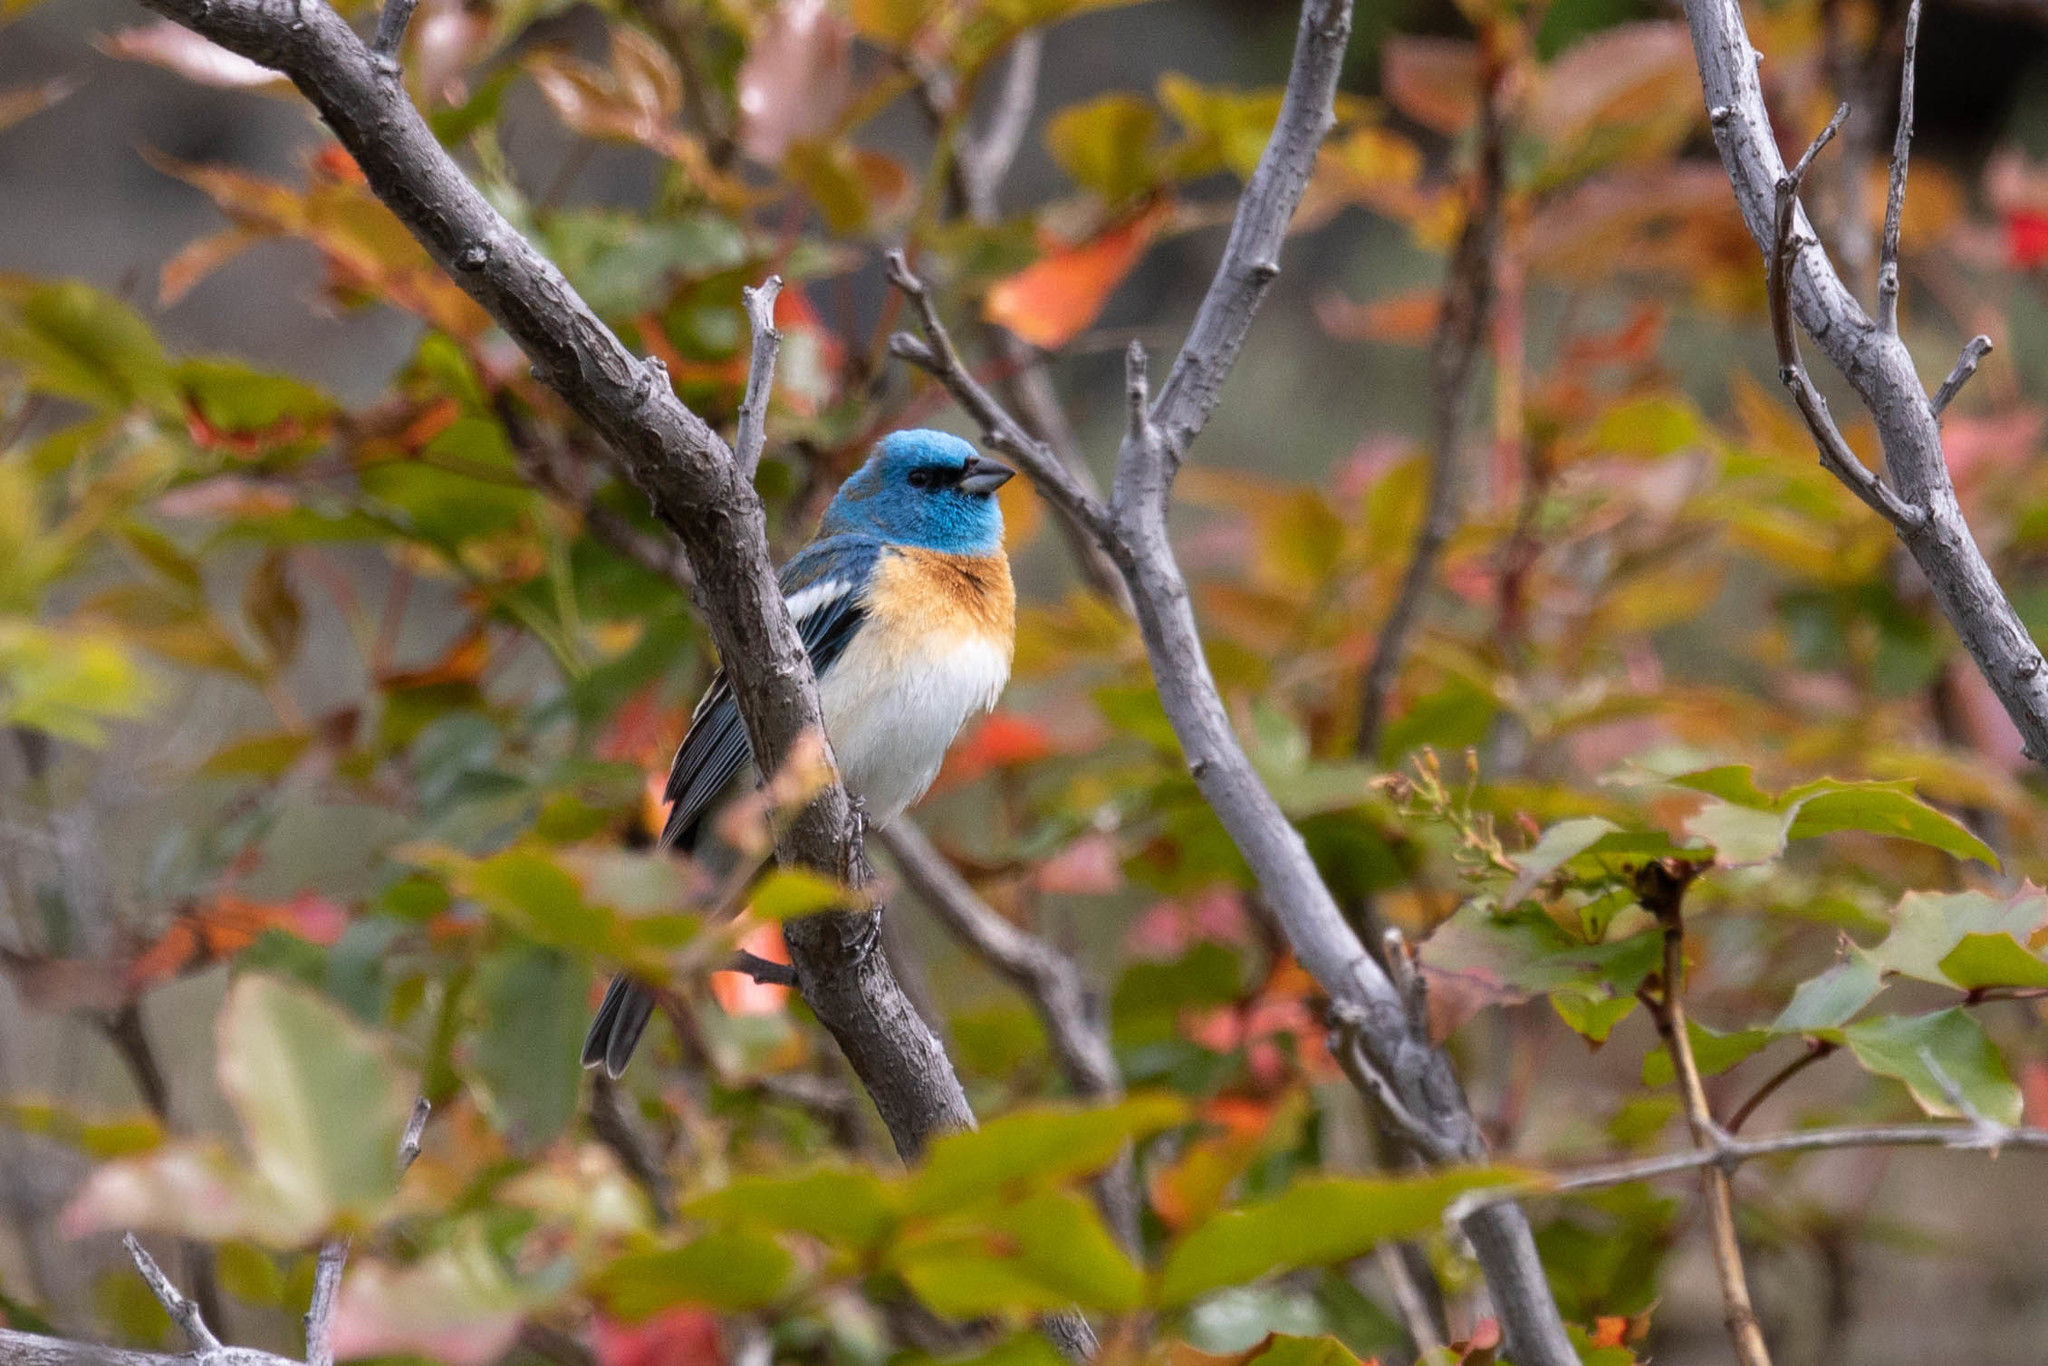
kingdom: Animalia
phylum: Chordata
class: Aves
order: Passeriformes
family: Cardinalidae
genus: Passerina
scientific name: Passerina amoena
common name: Lazuli bunting
